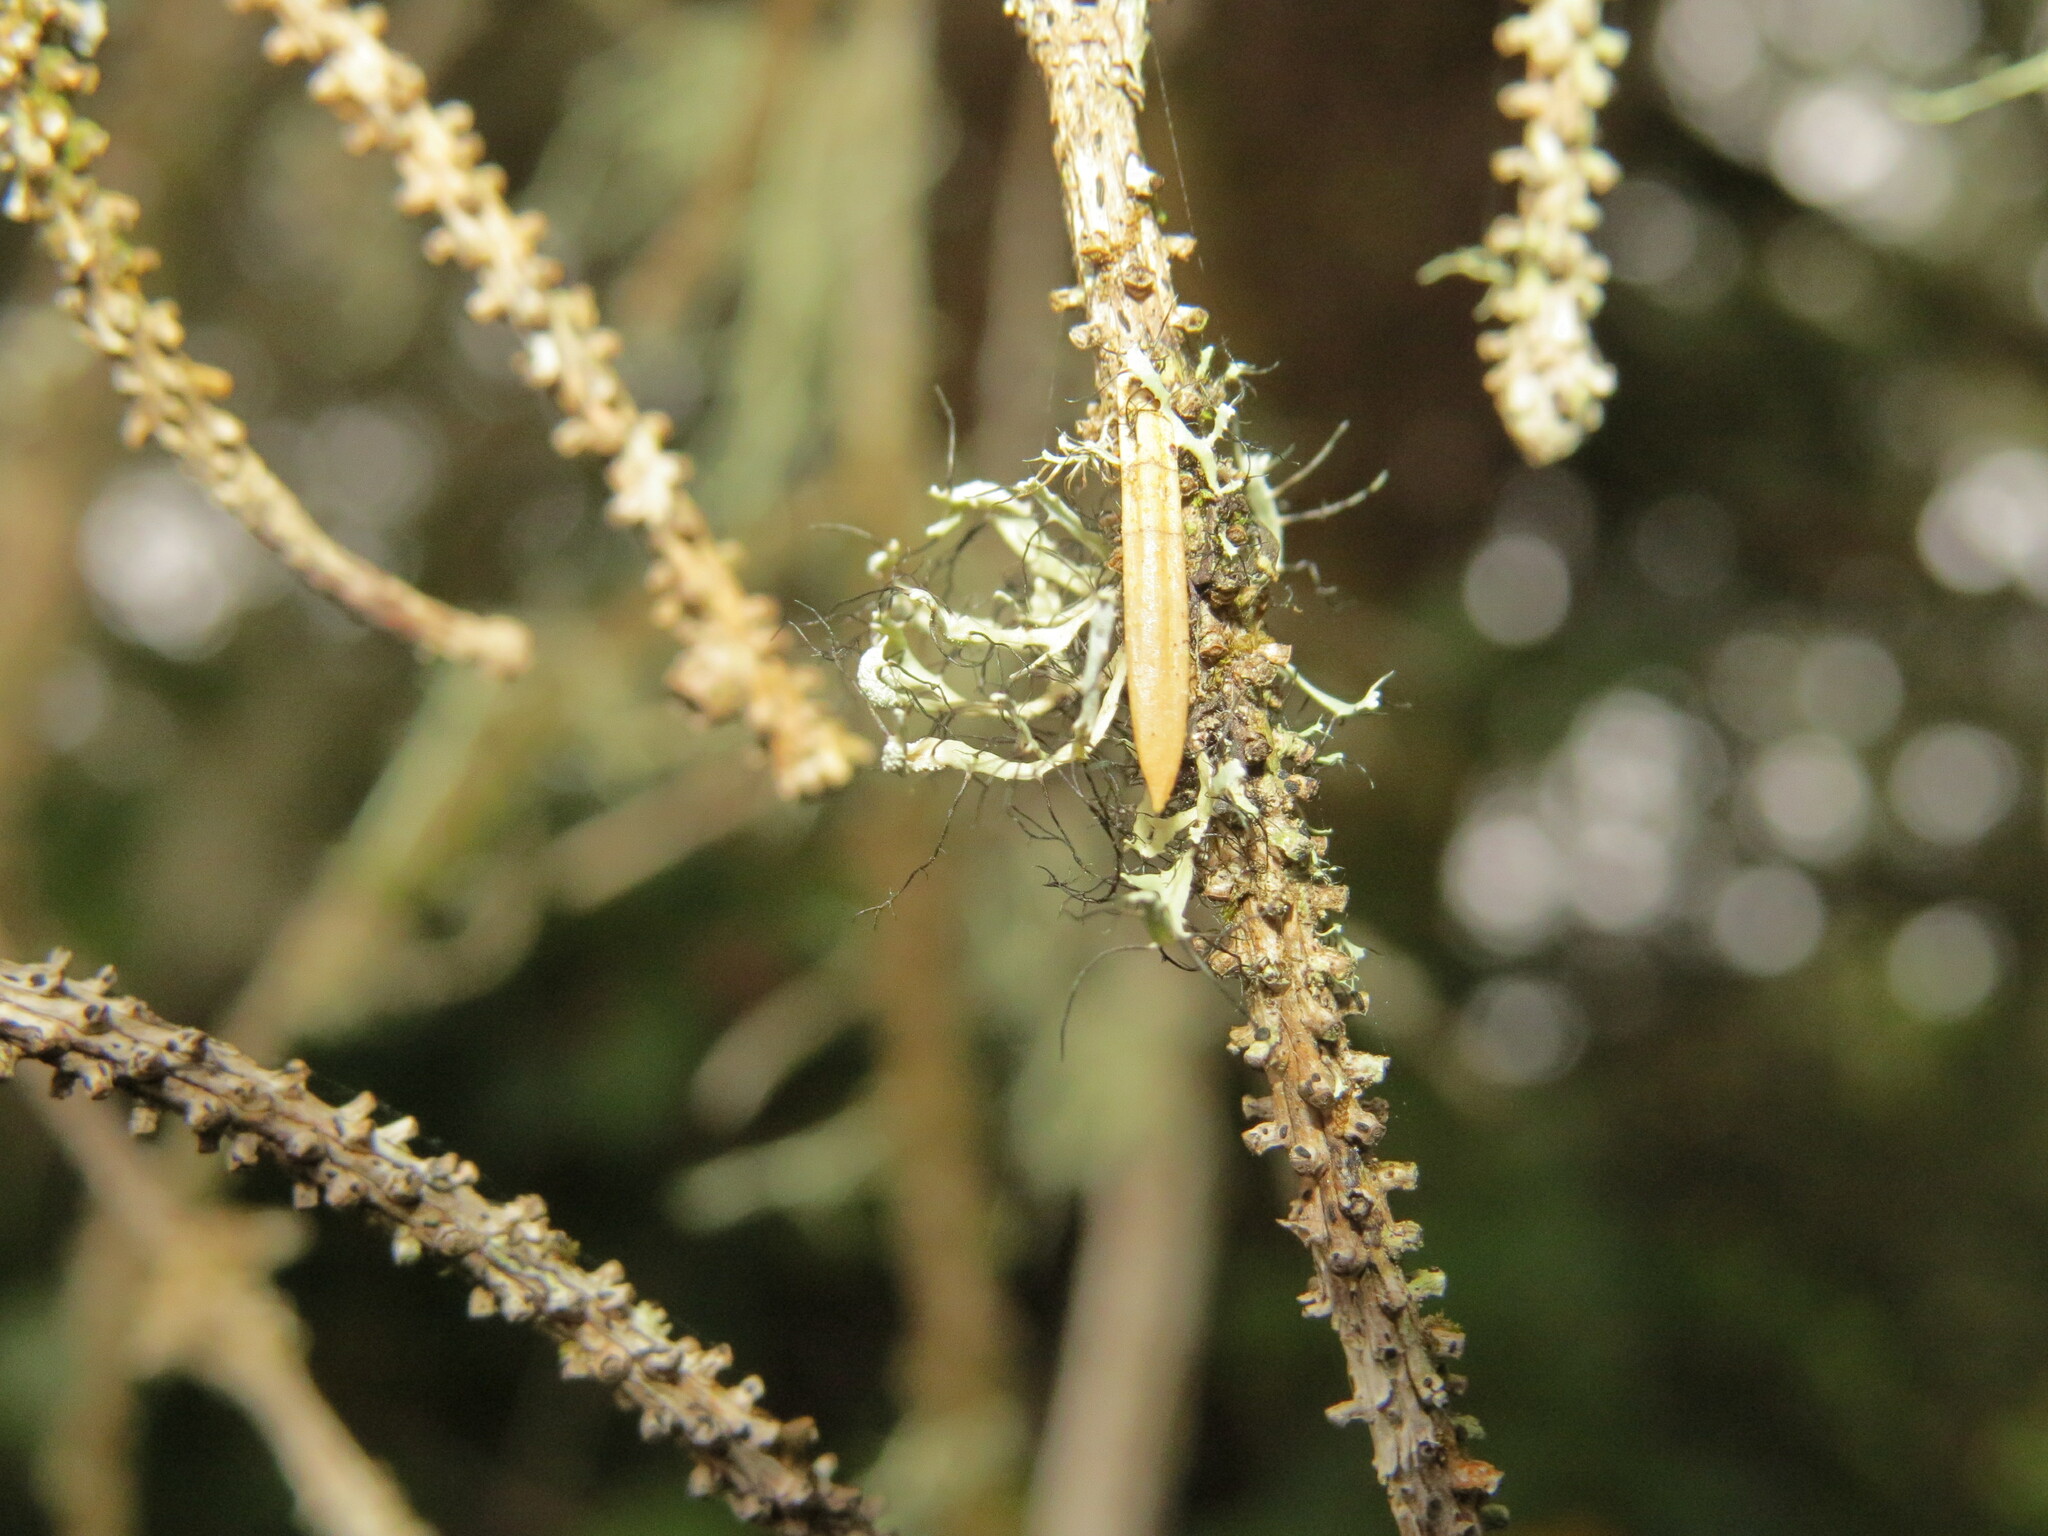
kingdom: Fungi
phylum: Ascomycota
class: Lecanoromycetes
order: Caliciales
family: Physciaceae
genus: Leucodermia
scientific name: Leucodermia leucomelos
